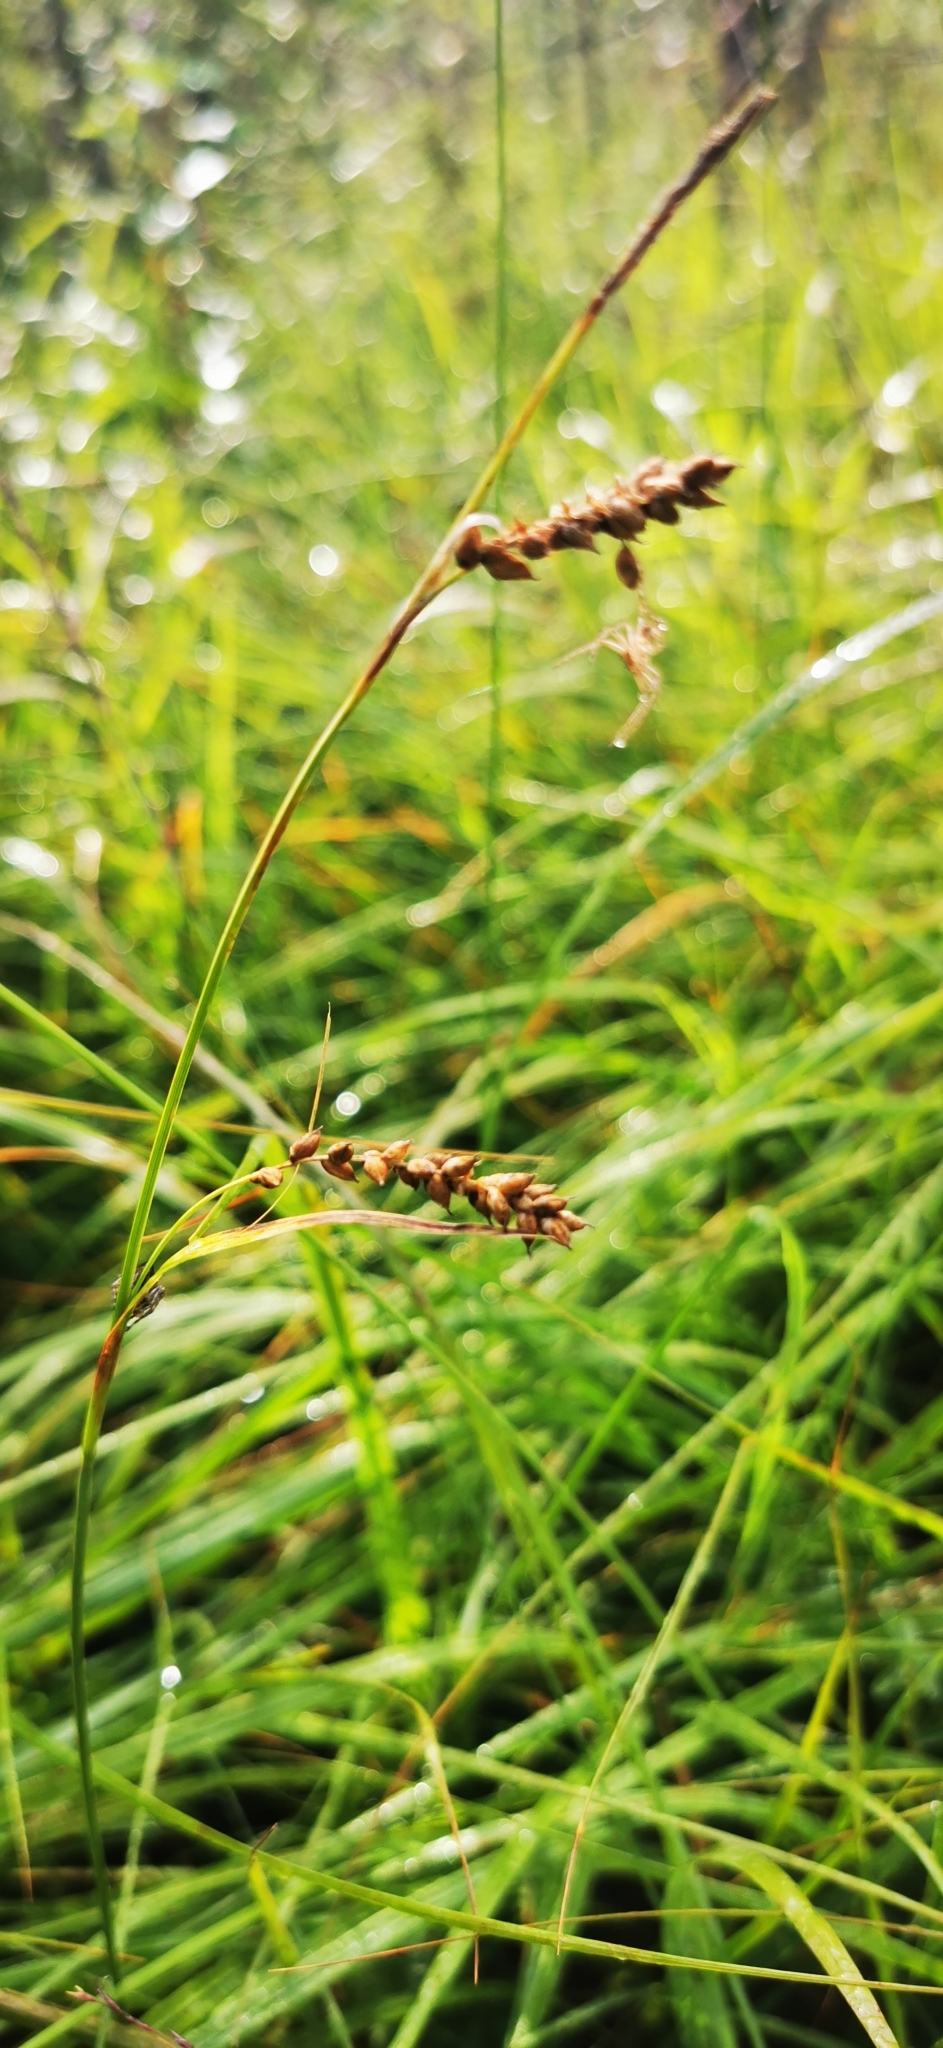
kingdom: Plantae
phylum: Tracheophyta
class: Liliopsida
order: Poales
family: Cyperaceae
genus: Carex
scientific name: Carex panicea
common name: Carnation sedge
